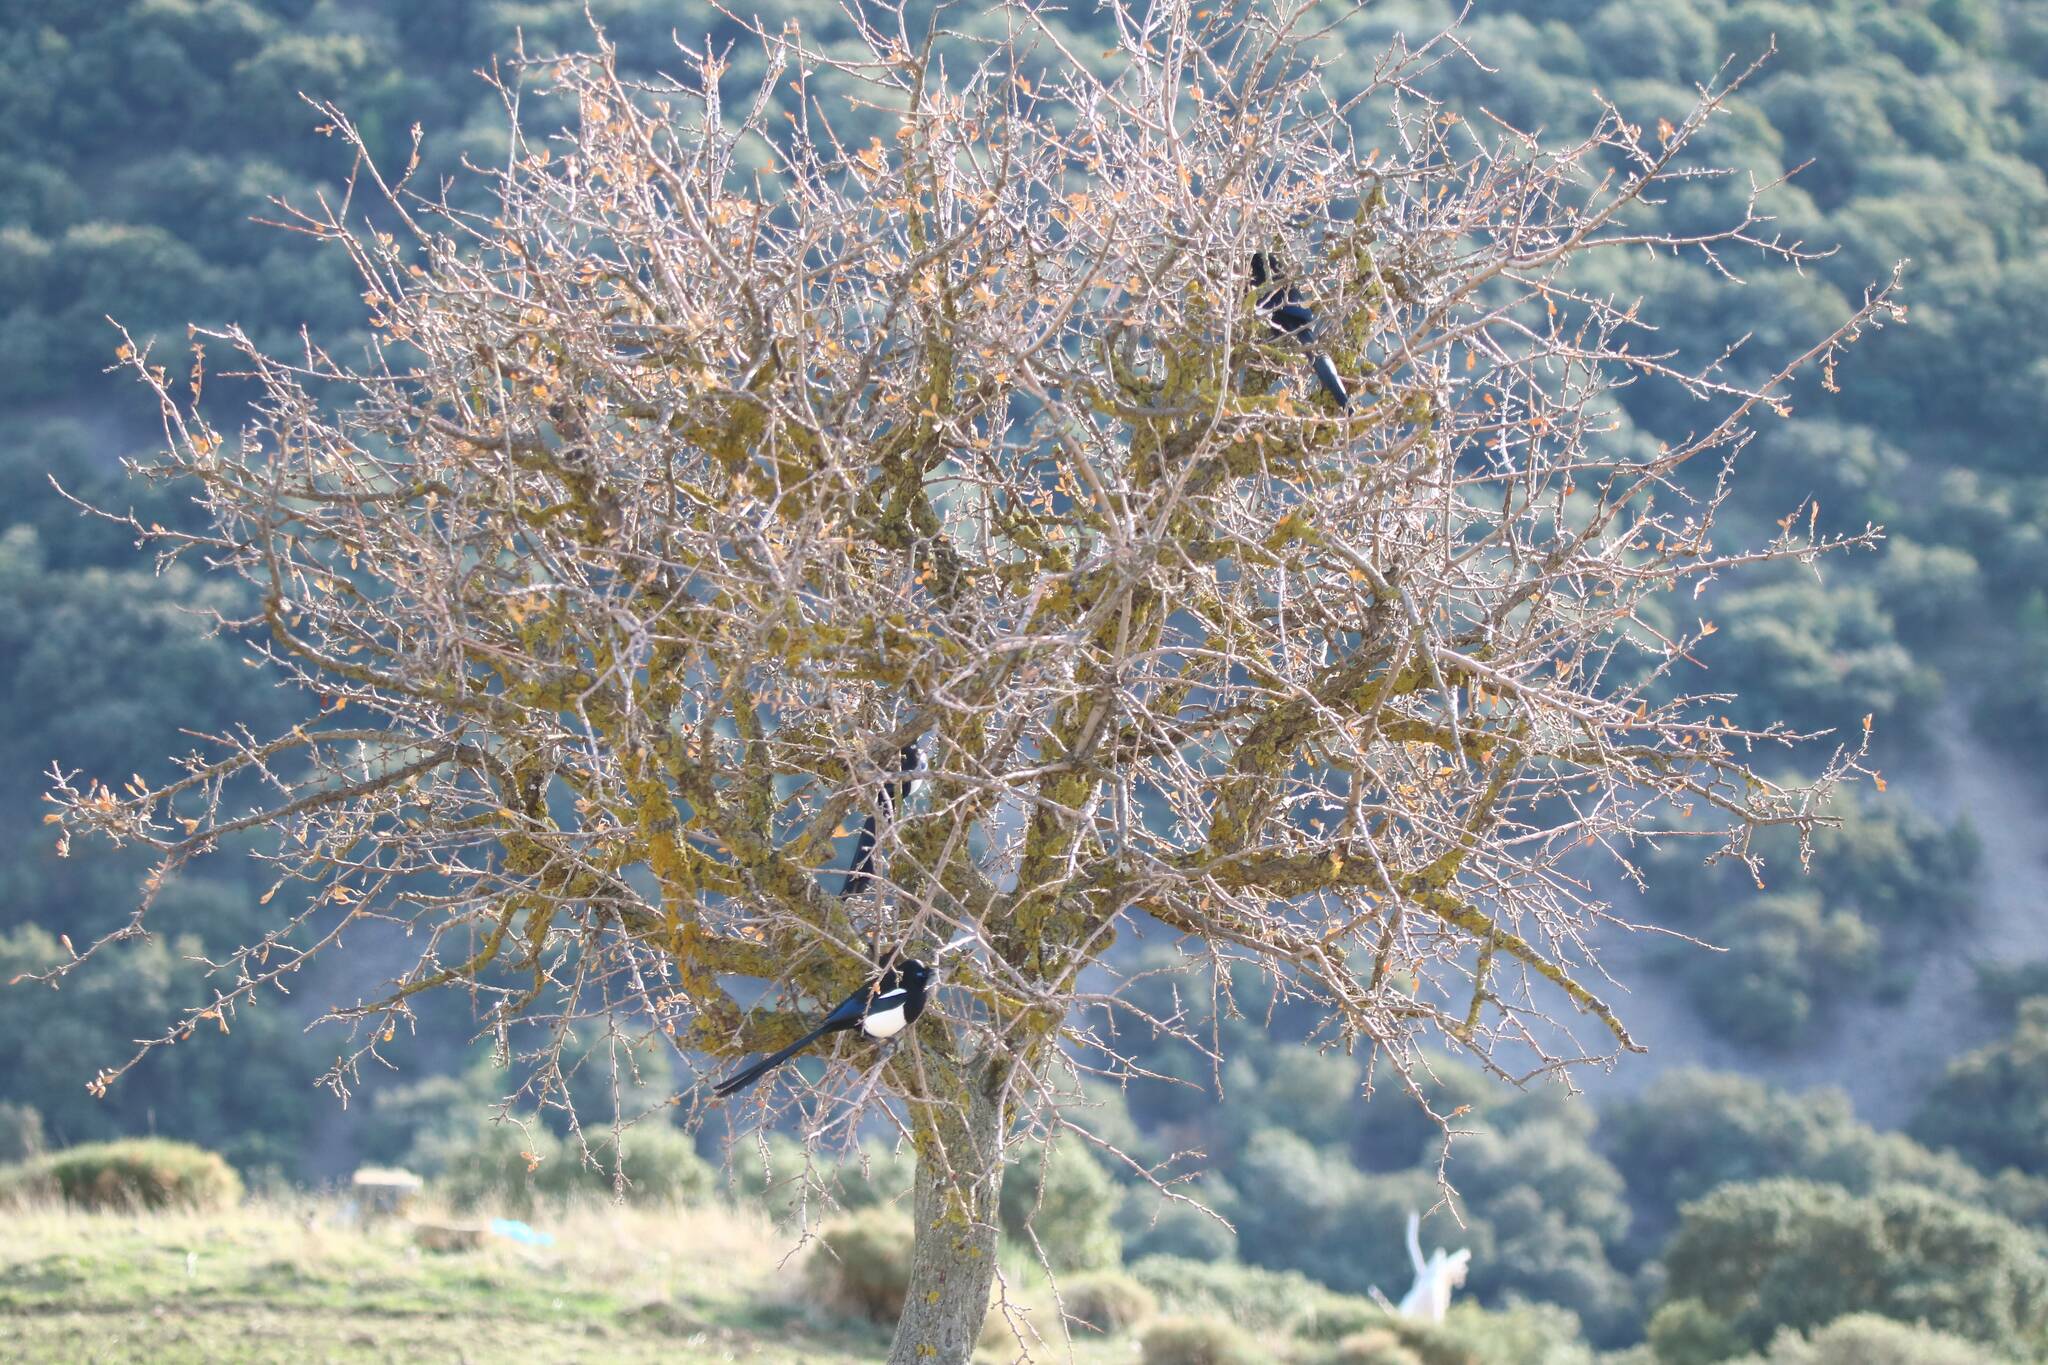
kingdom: Animalia
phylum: Chordata
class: Aves
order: Passeriformes
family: Corvidae
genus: Pica
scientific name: Pica mauritanica
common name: Maghreb magpie
